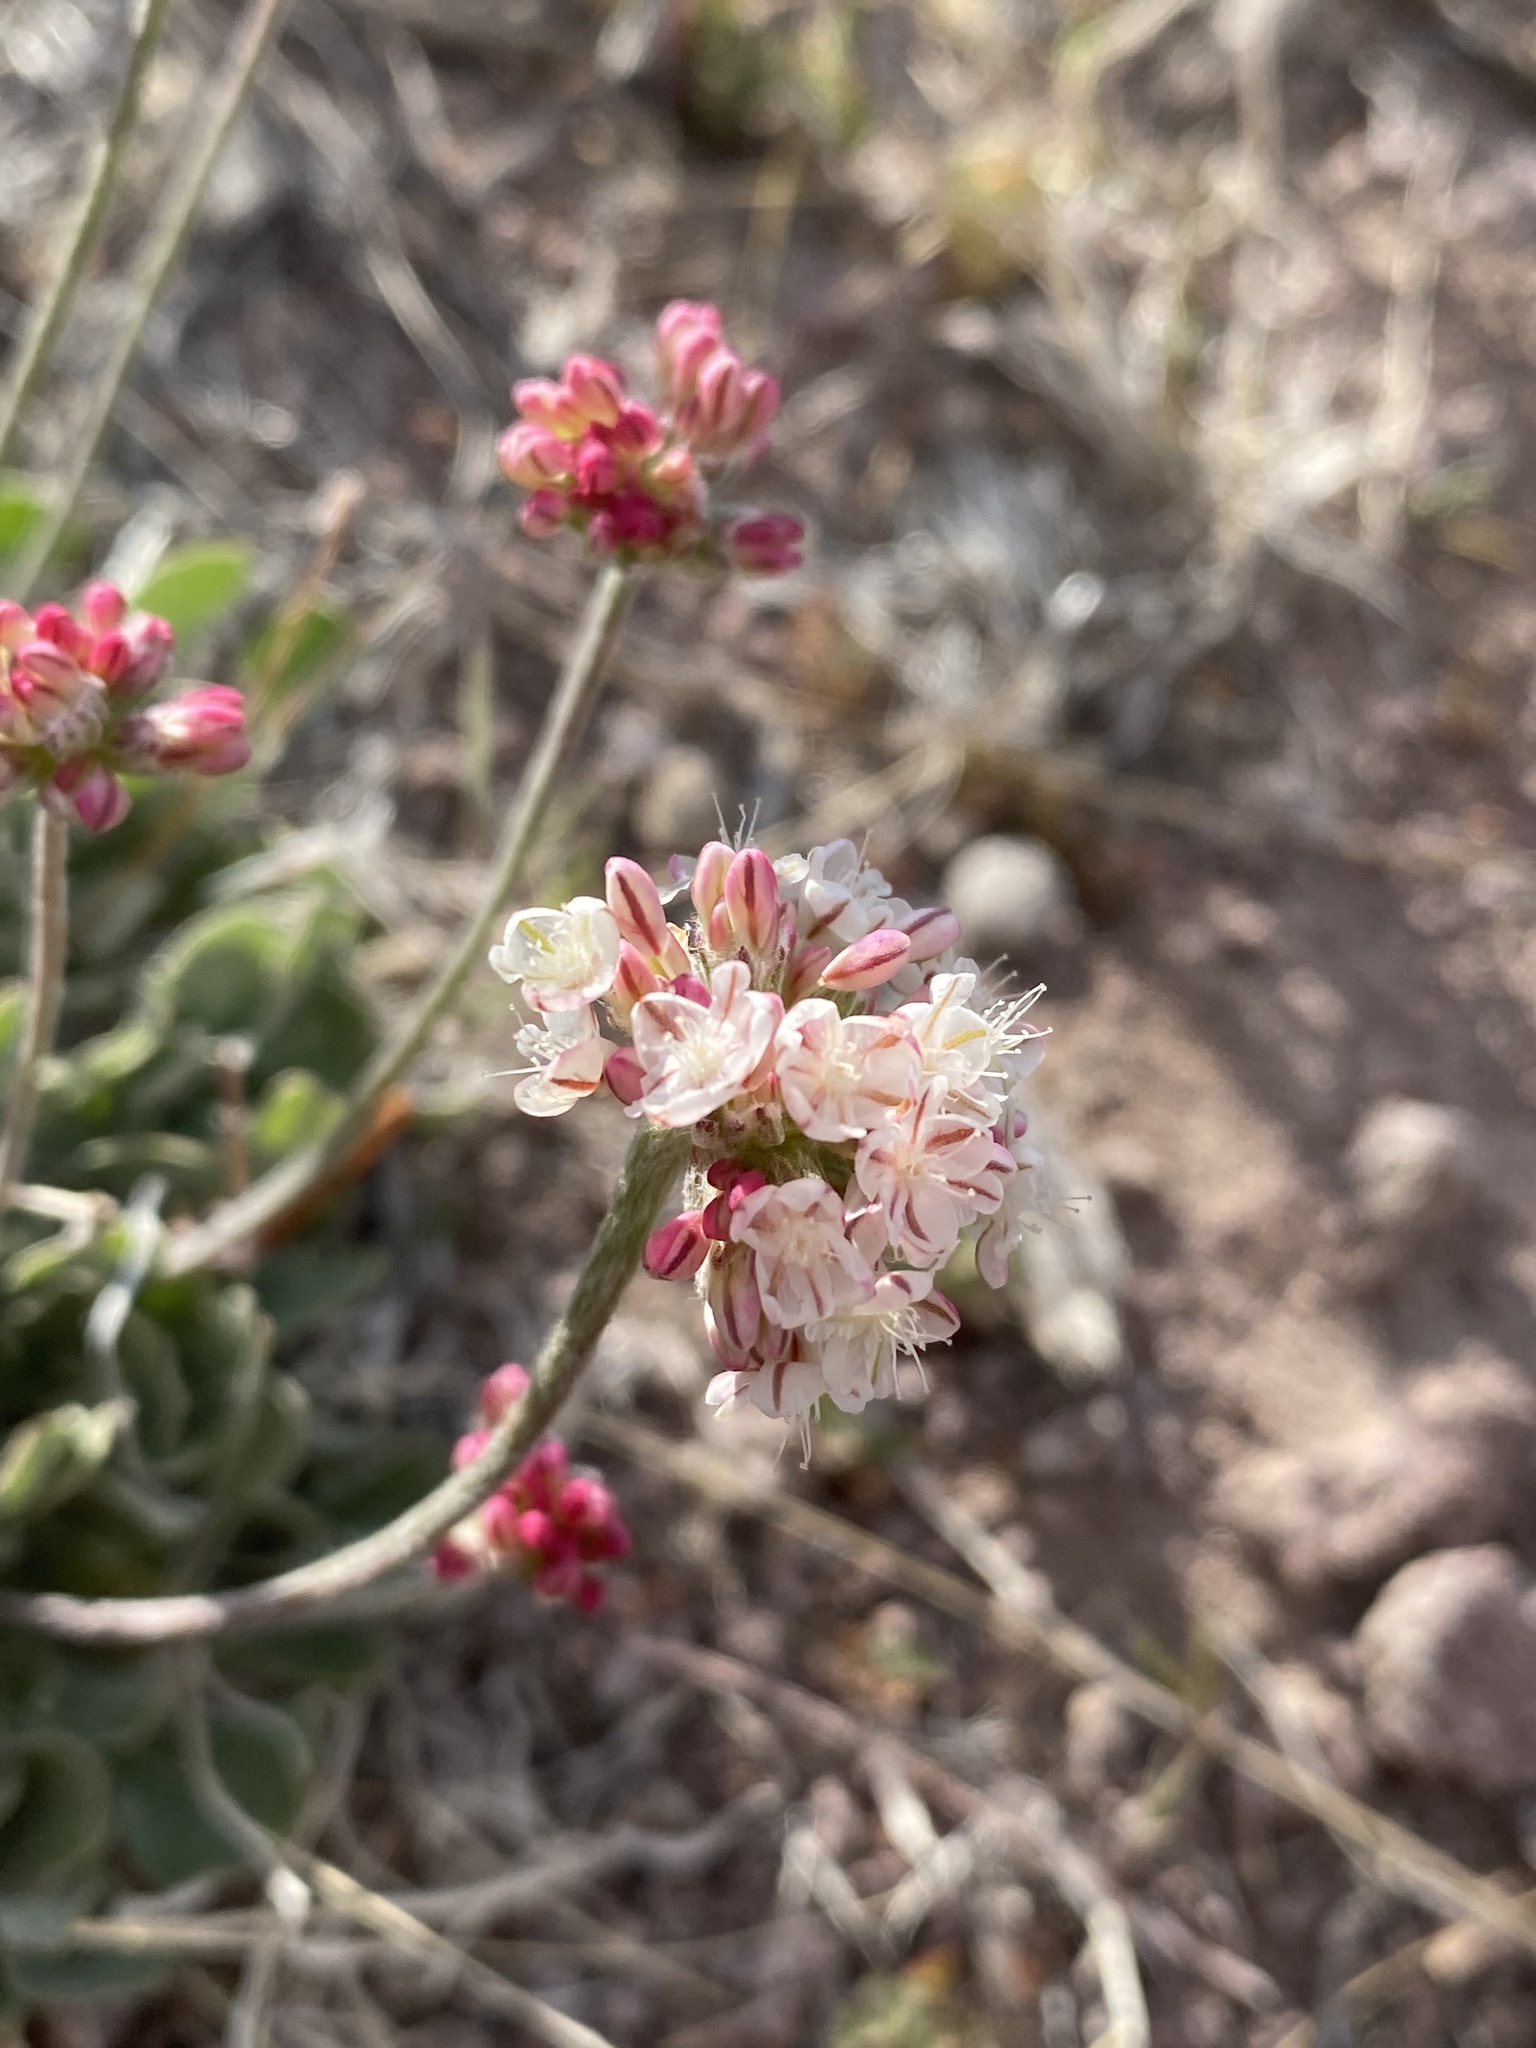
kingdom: Plantae
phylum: Tracheophyta
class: Magnoliopsida
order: Caryophyllales
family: Polygonaceae
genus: Eriogonum
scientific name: Eriogonum ovalifolium
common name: Cushion buckwheat
